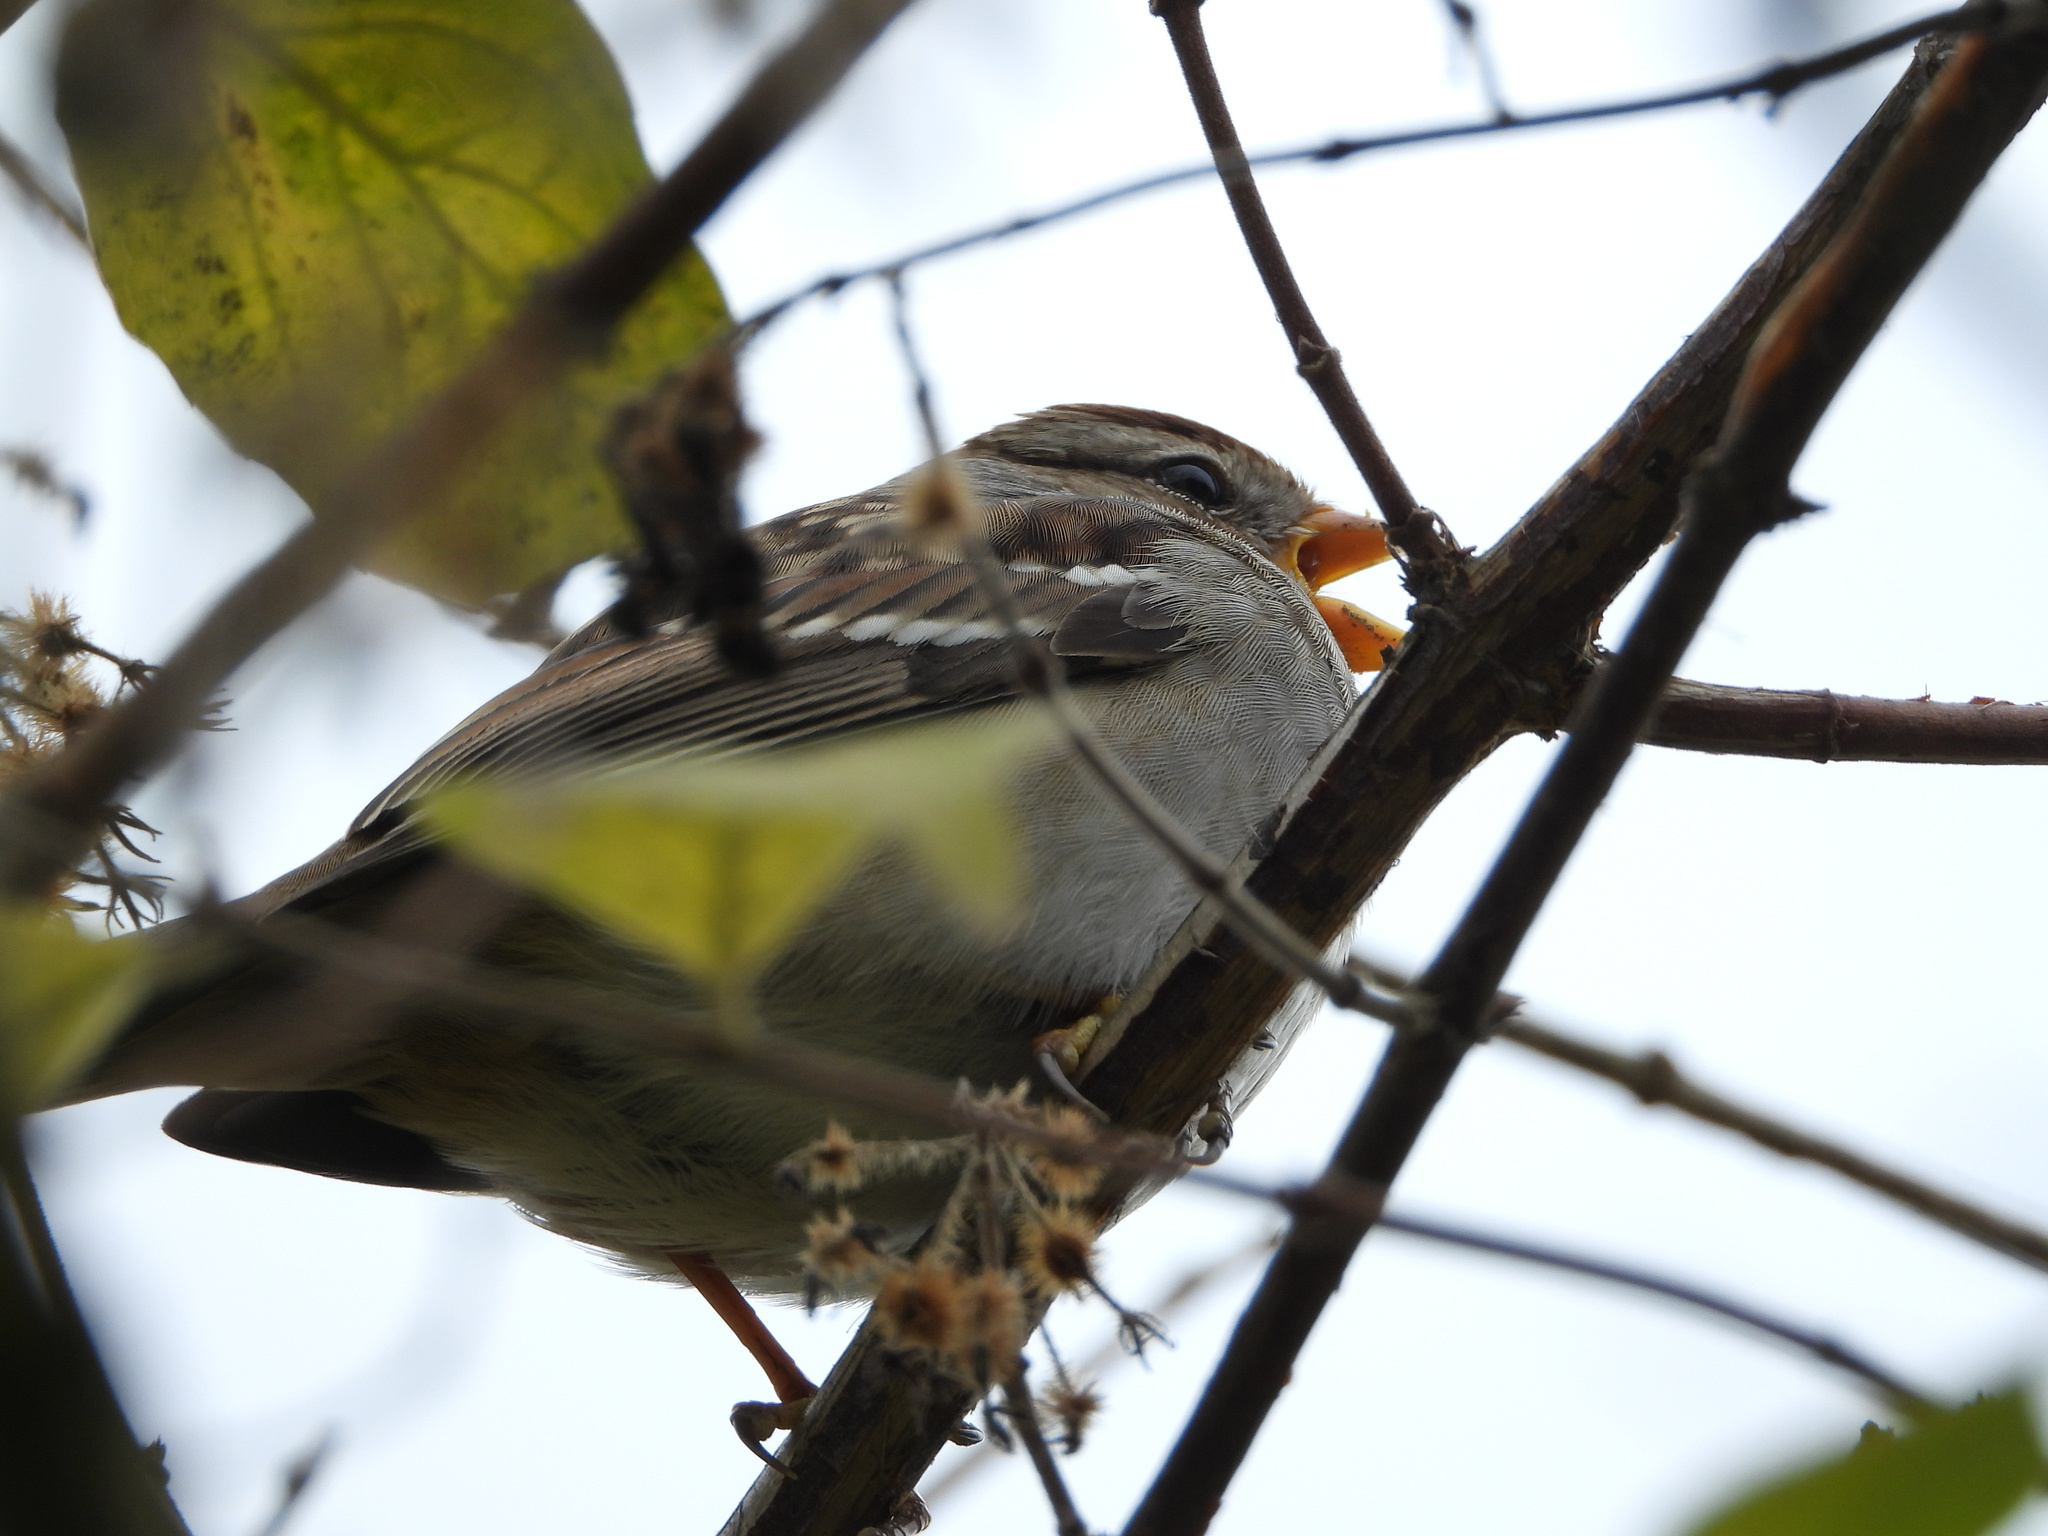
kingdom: Animalia
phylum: Chordata
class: Aves
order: Passeriformes
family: Passerellidae
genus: Zonotrichia
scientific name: Zonotrichia leucophrys
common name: White-crowned sparrow
